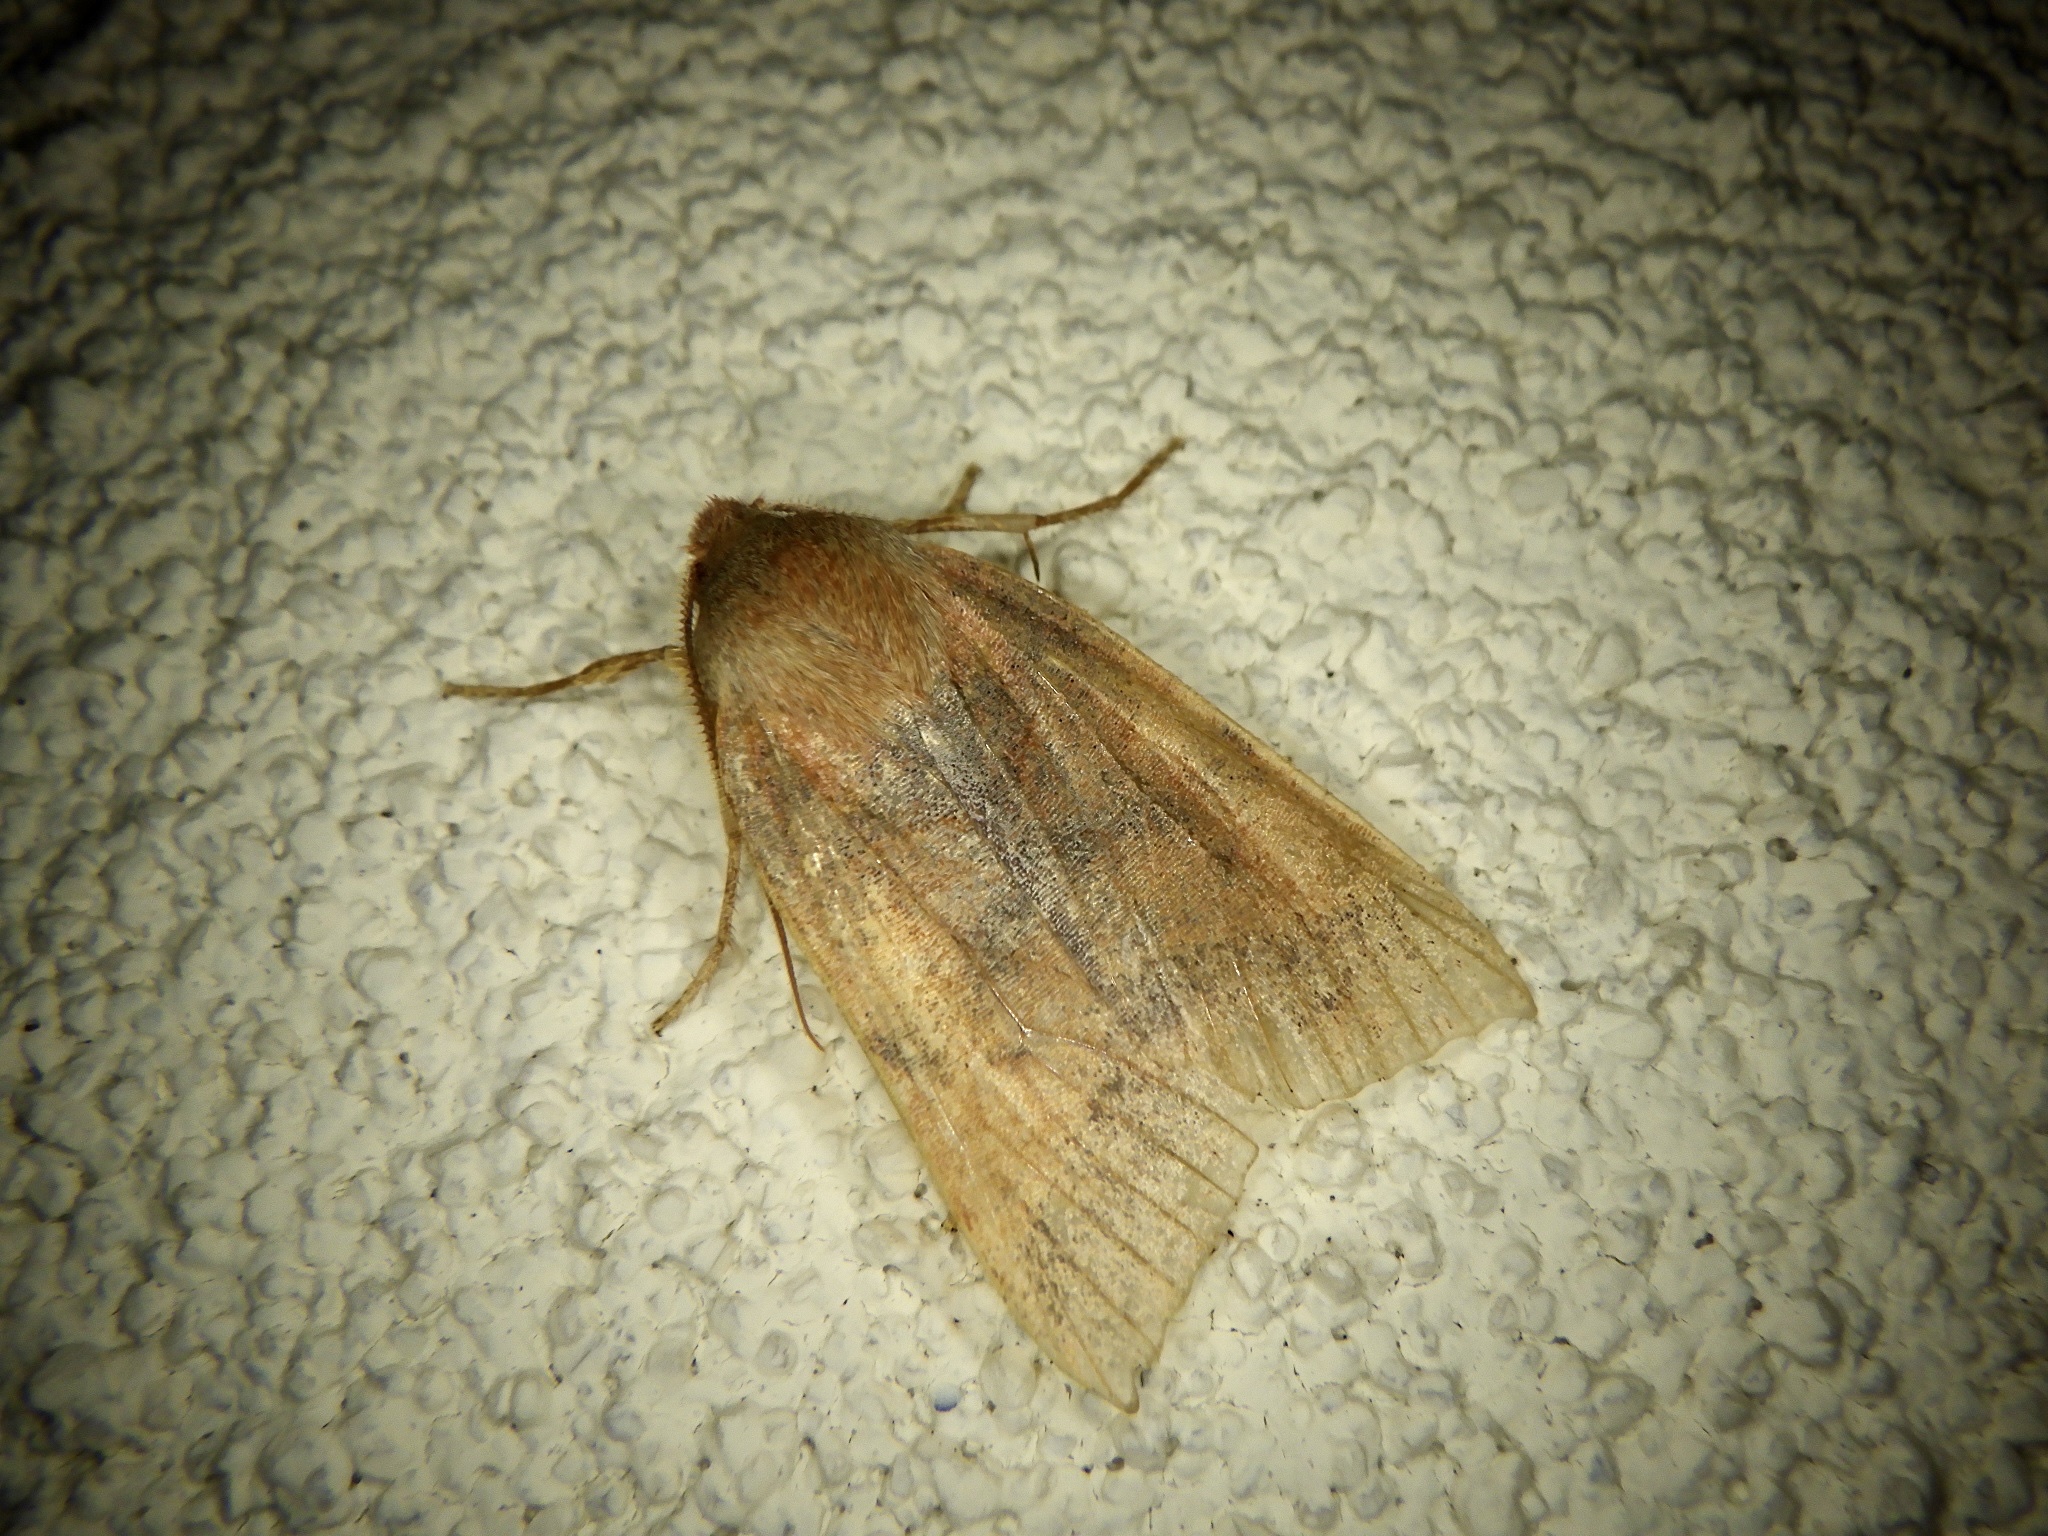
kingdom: Animalia
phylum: Arthropoda
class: Insecta
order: Lepidoptera
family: Noctuidae
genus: Telorta
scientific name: Telorta edentata
